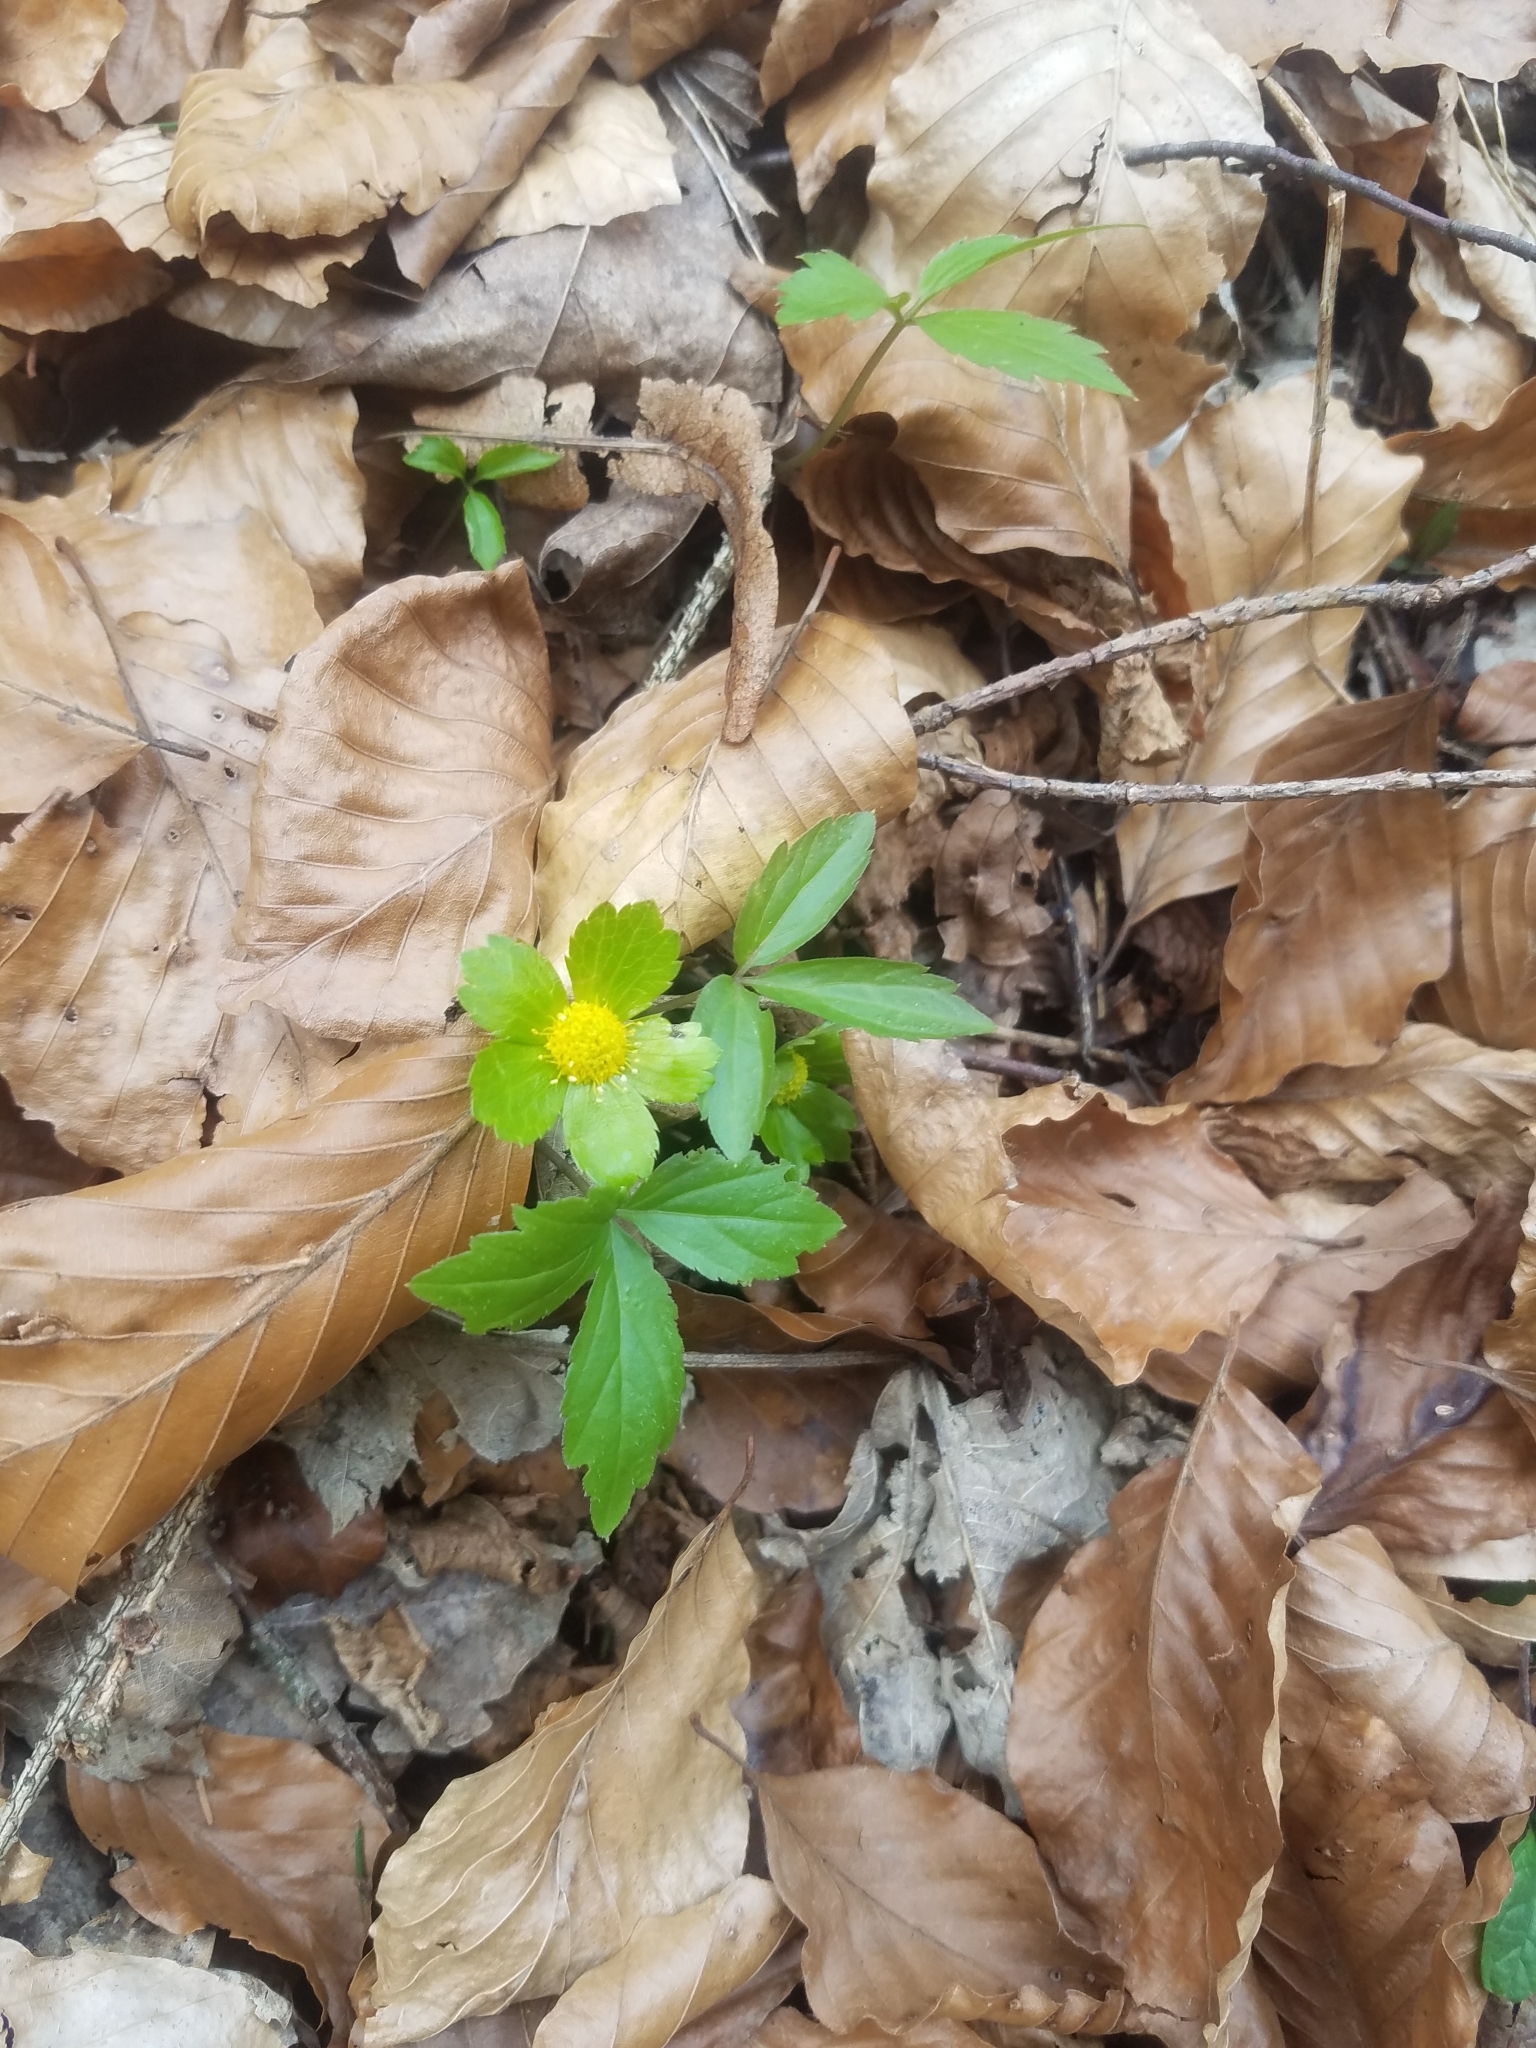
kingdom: Plantae
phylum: Tracheophyta
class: Magnoliopsida
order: Apiales
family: Apiaceae
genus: Sanicula
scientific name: Sanicula epipactis
